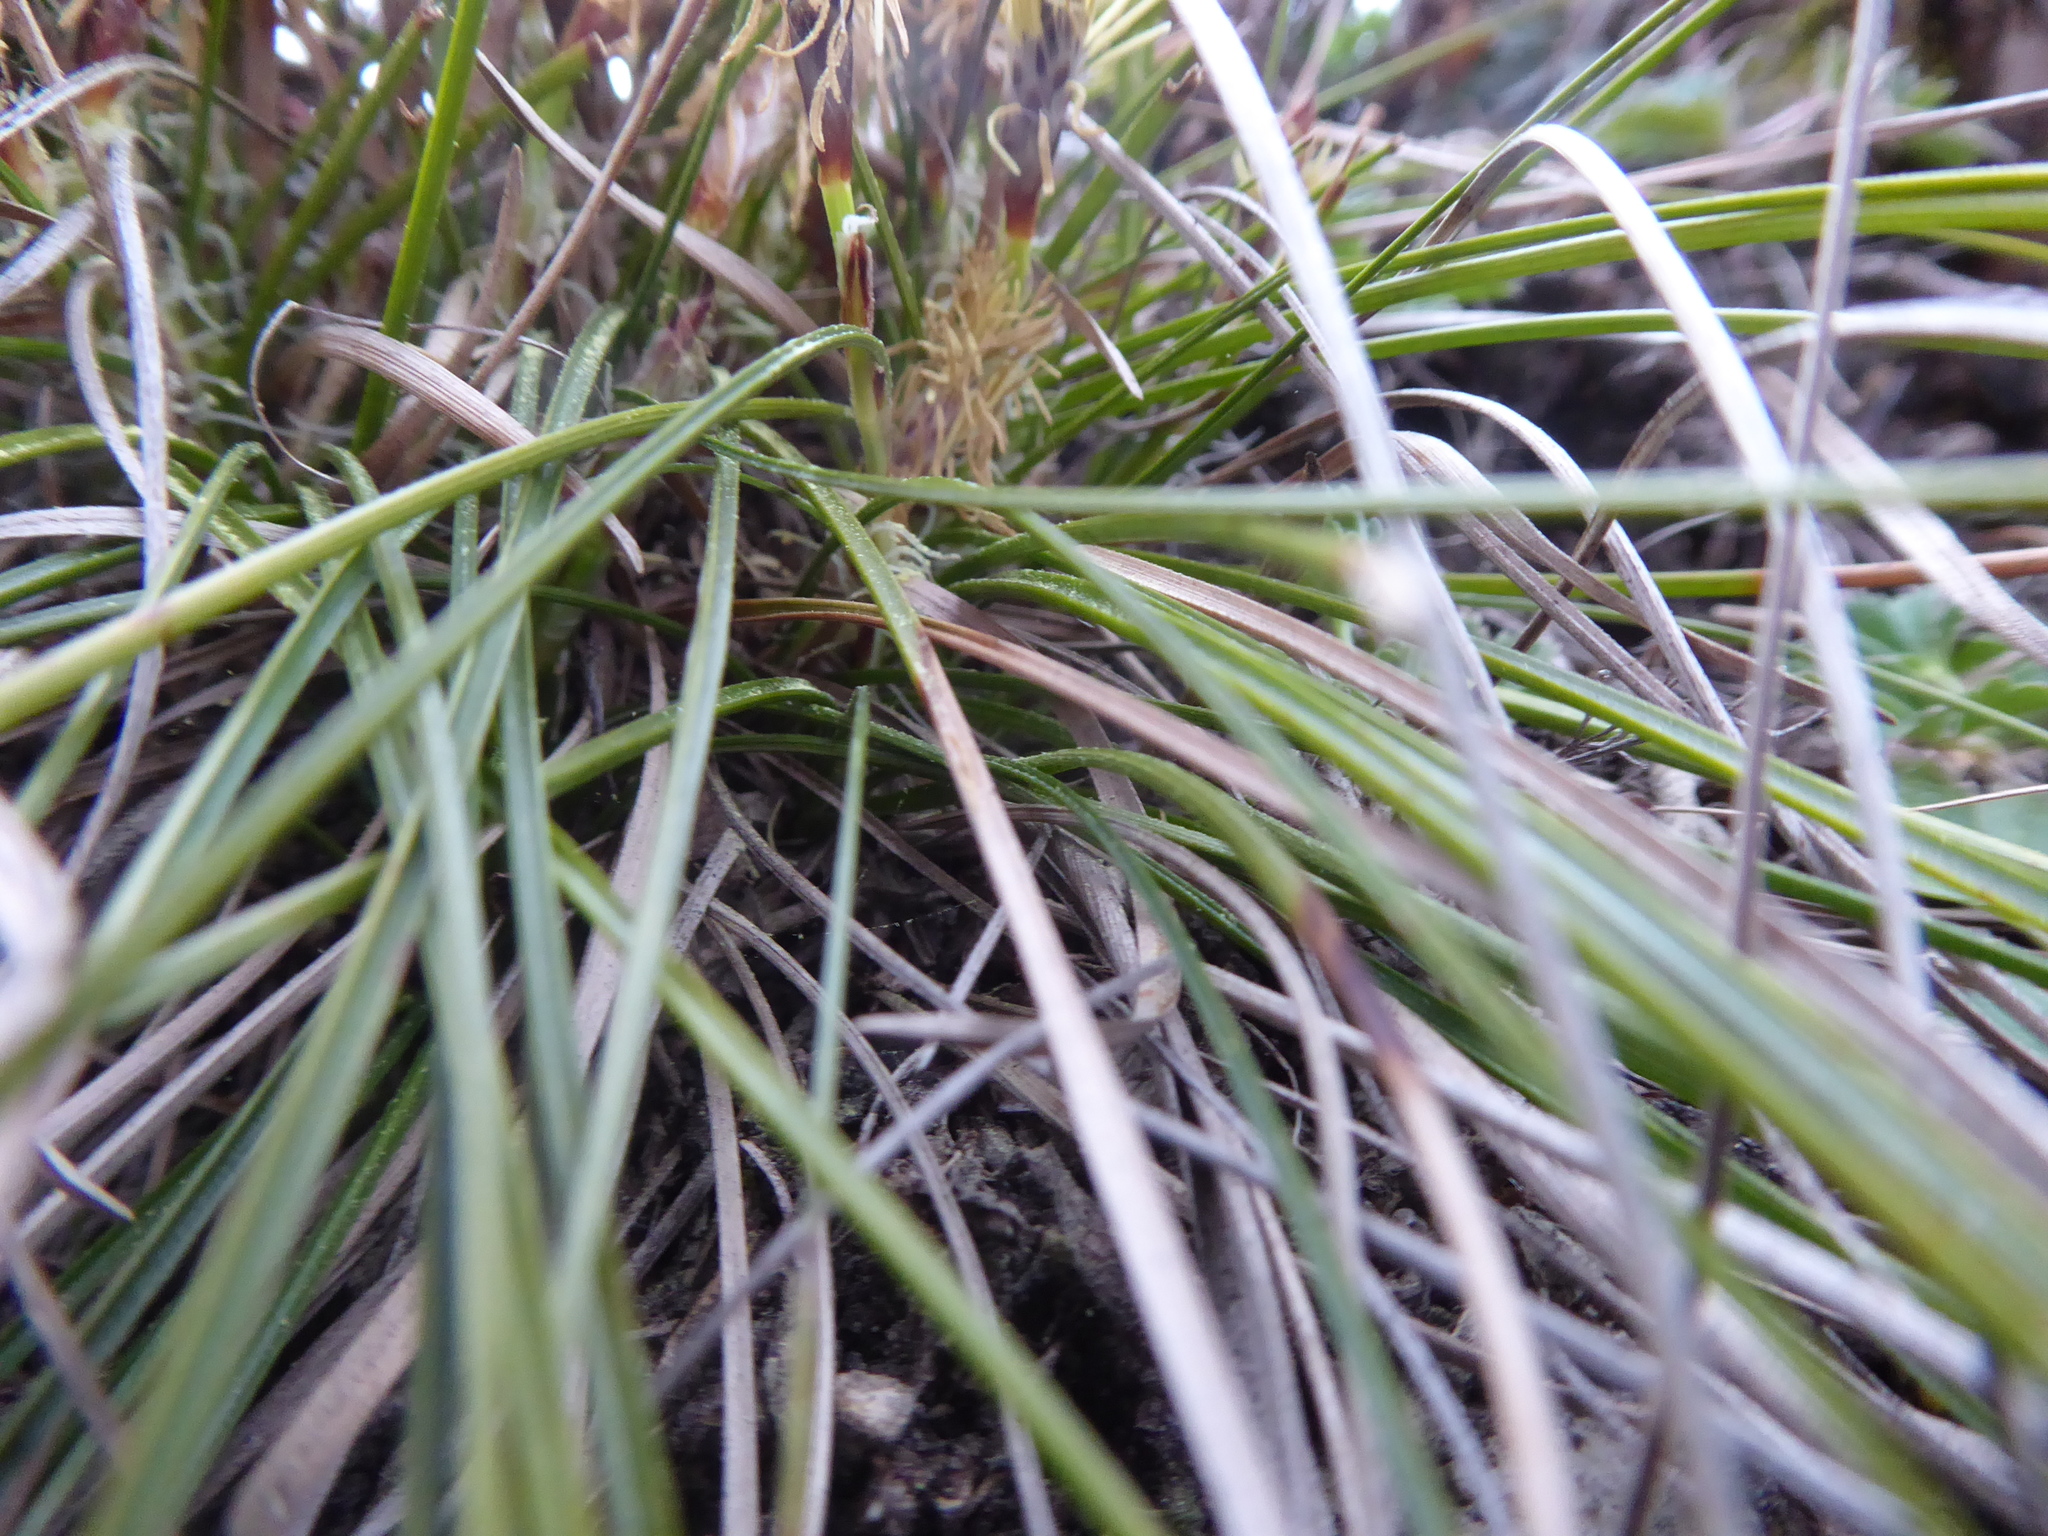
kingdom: Plantae
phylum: Tracheophyta
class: Liliopsida
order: Poales
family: Cyperaceae
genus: Carex
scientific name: Carex humilis
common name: Dwarf sedge
